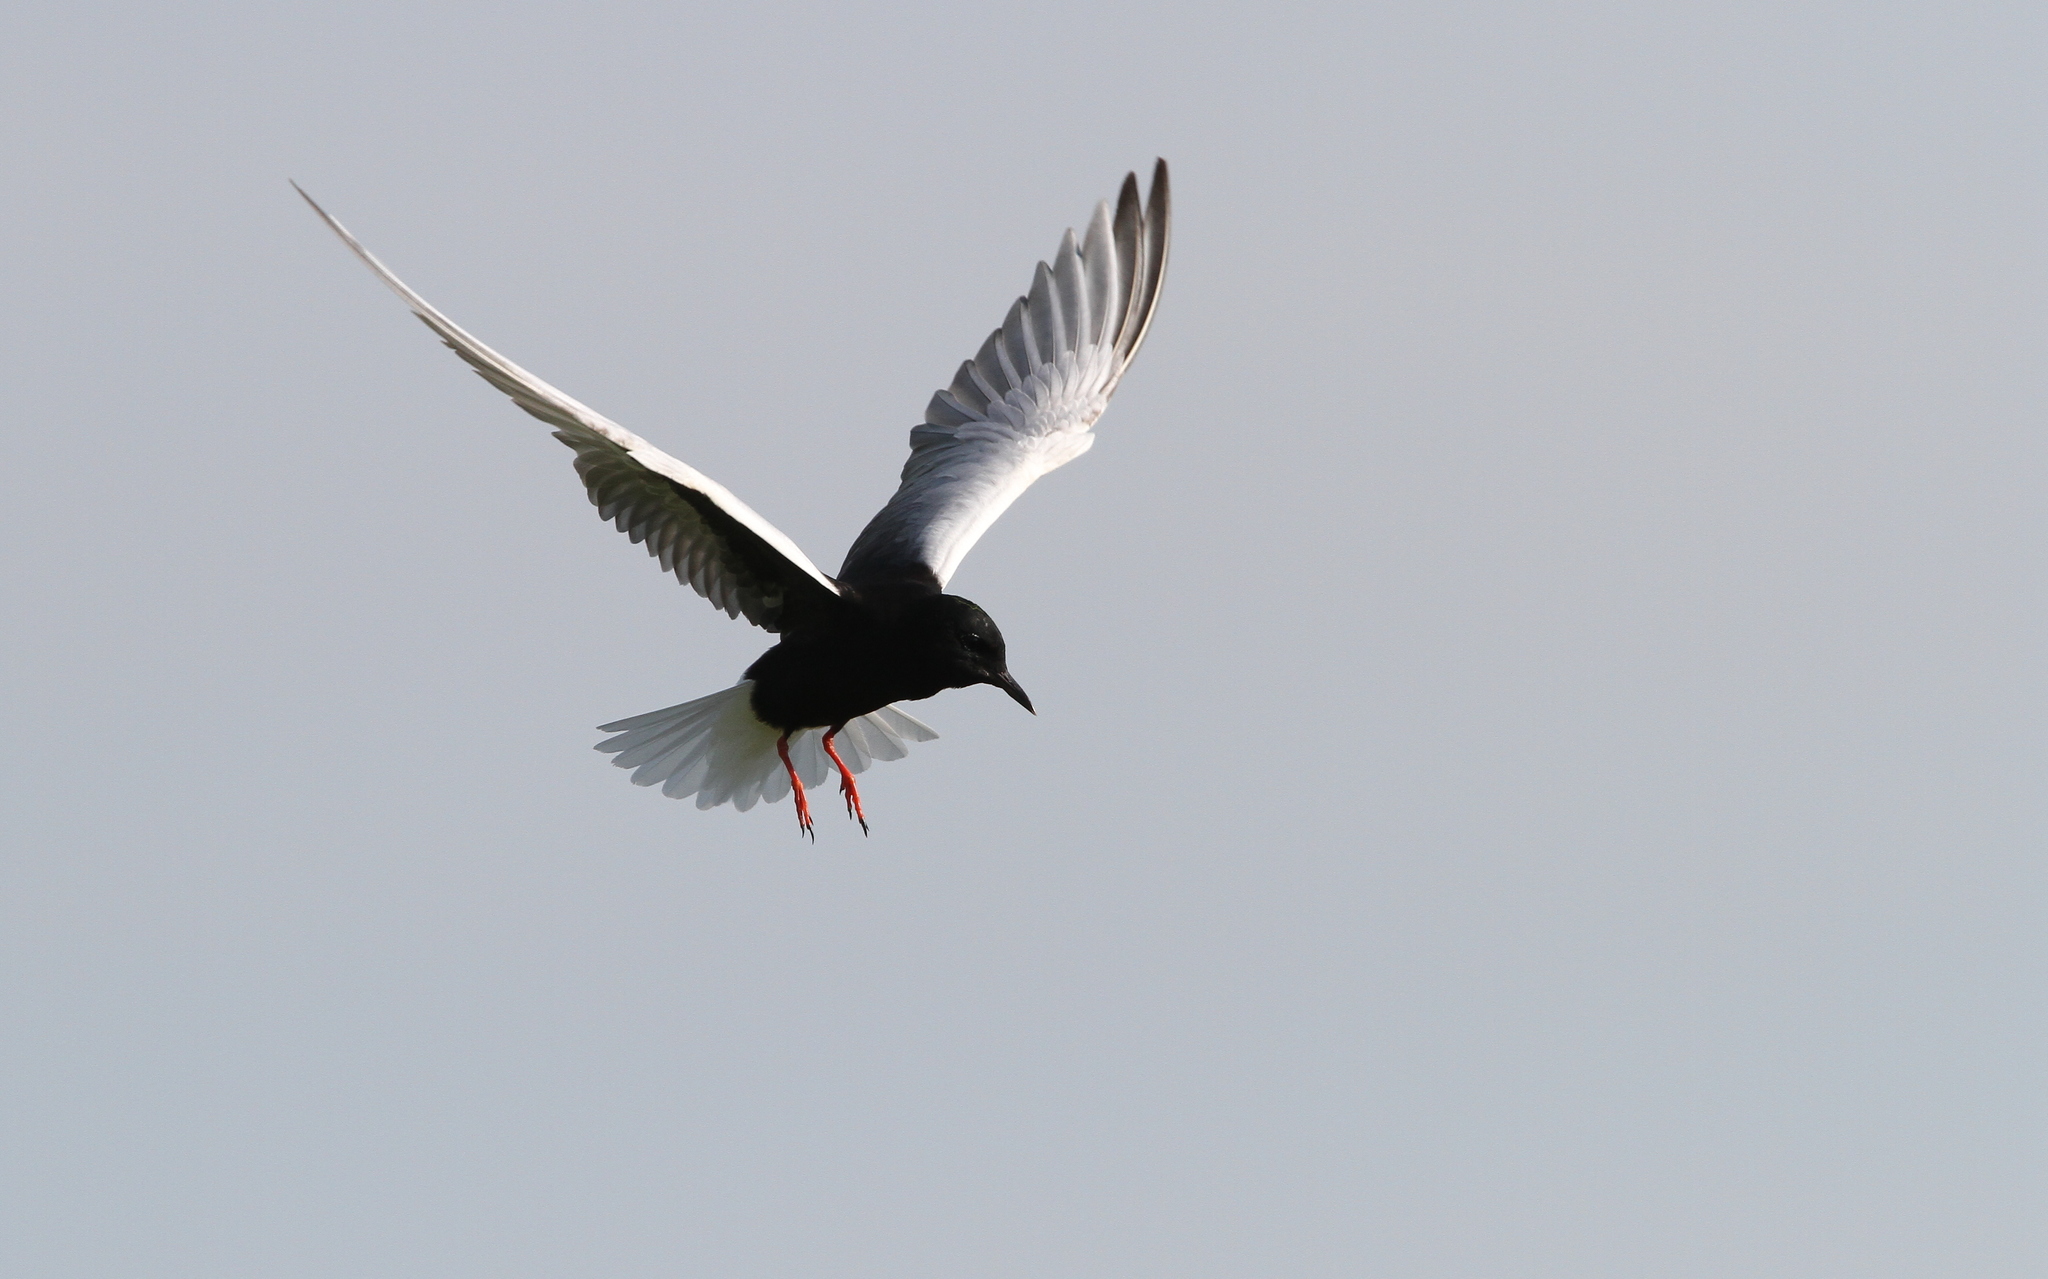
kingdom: Animalia
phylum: Chordata
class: Aves
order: Charadriiformes
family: Laridae
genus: Chlidonias
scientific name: Chlidonias leucopterus
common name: White-winged tern
